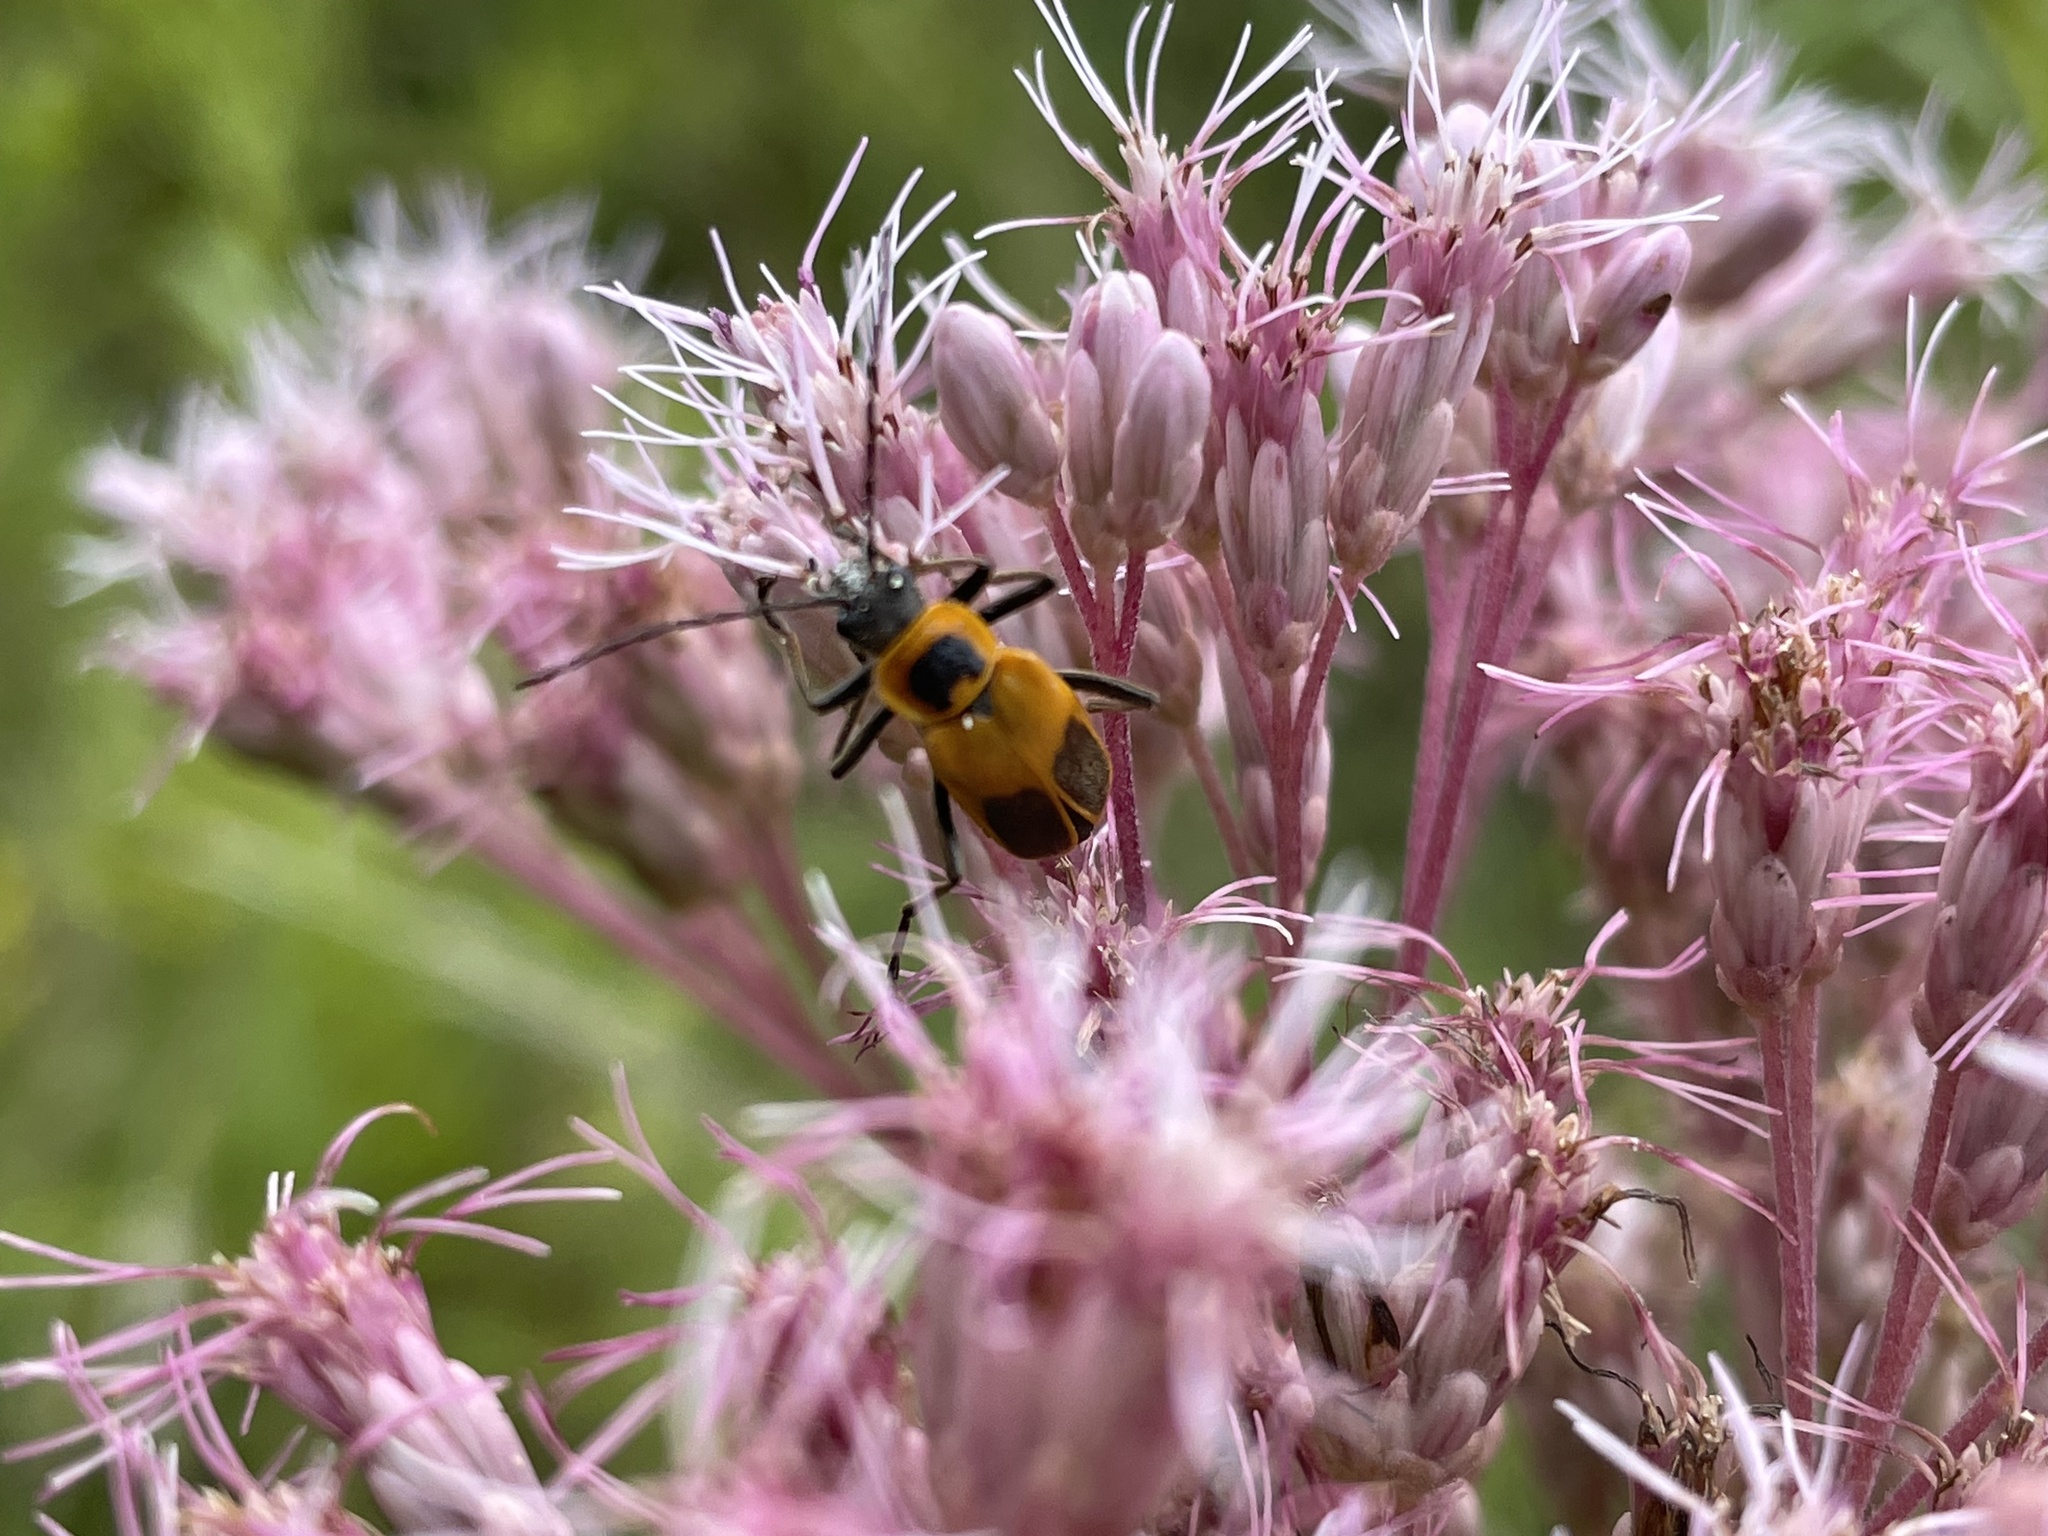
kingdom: Animalia
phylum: Arthropoda
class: Insecta
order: Coleoptera
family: Cantharidae
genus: Chauliognathus
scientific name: Chauliognathus pensylvanicus
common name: Goldenrod soldier beetle
